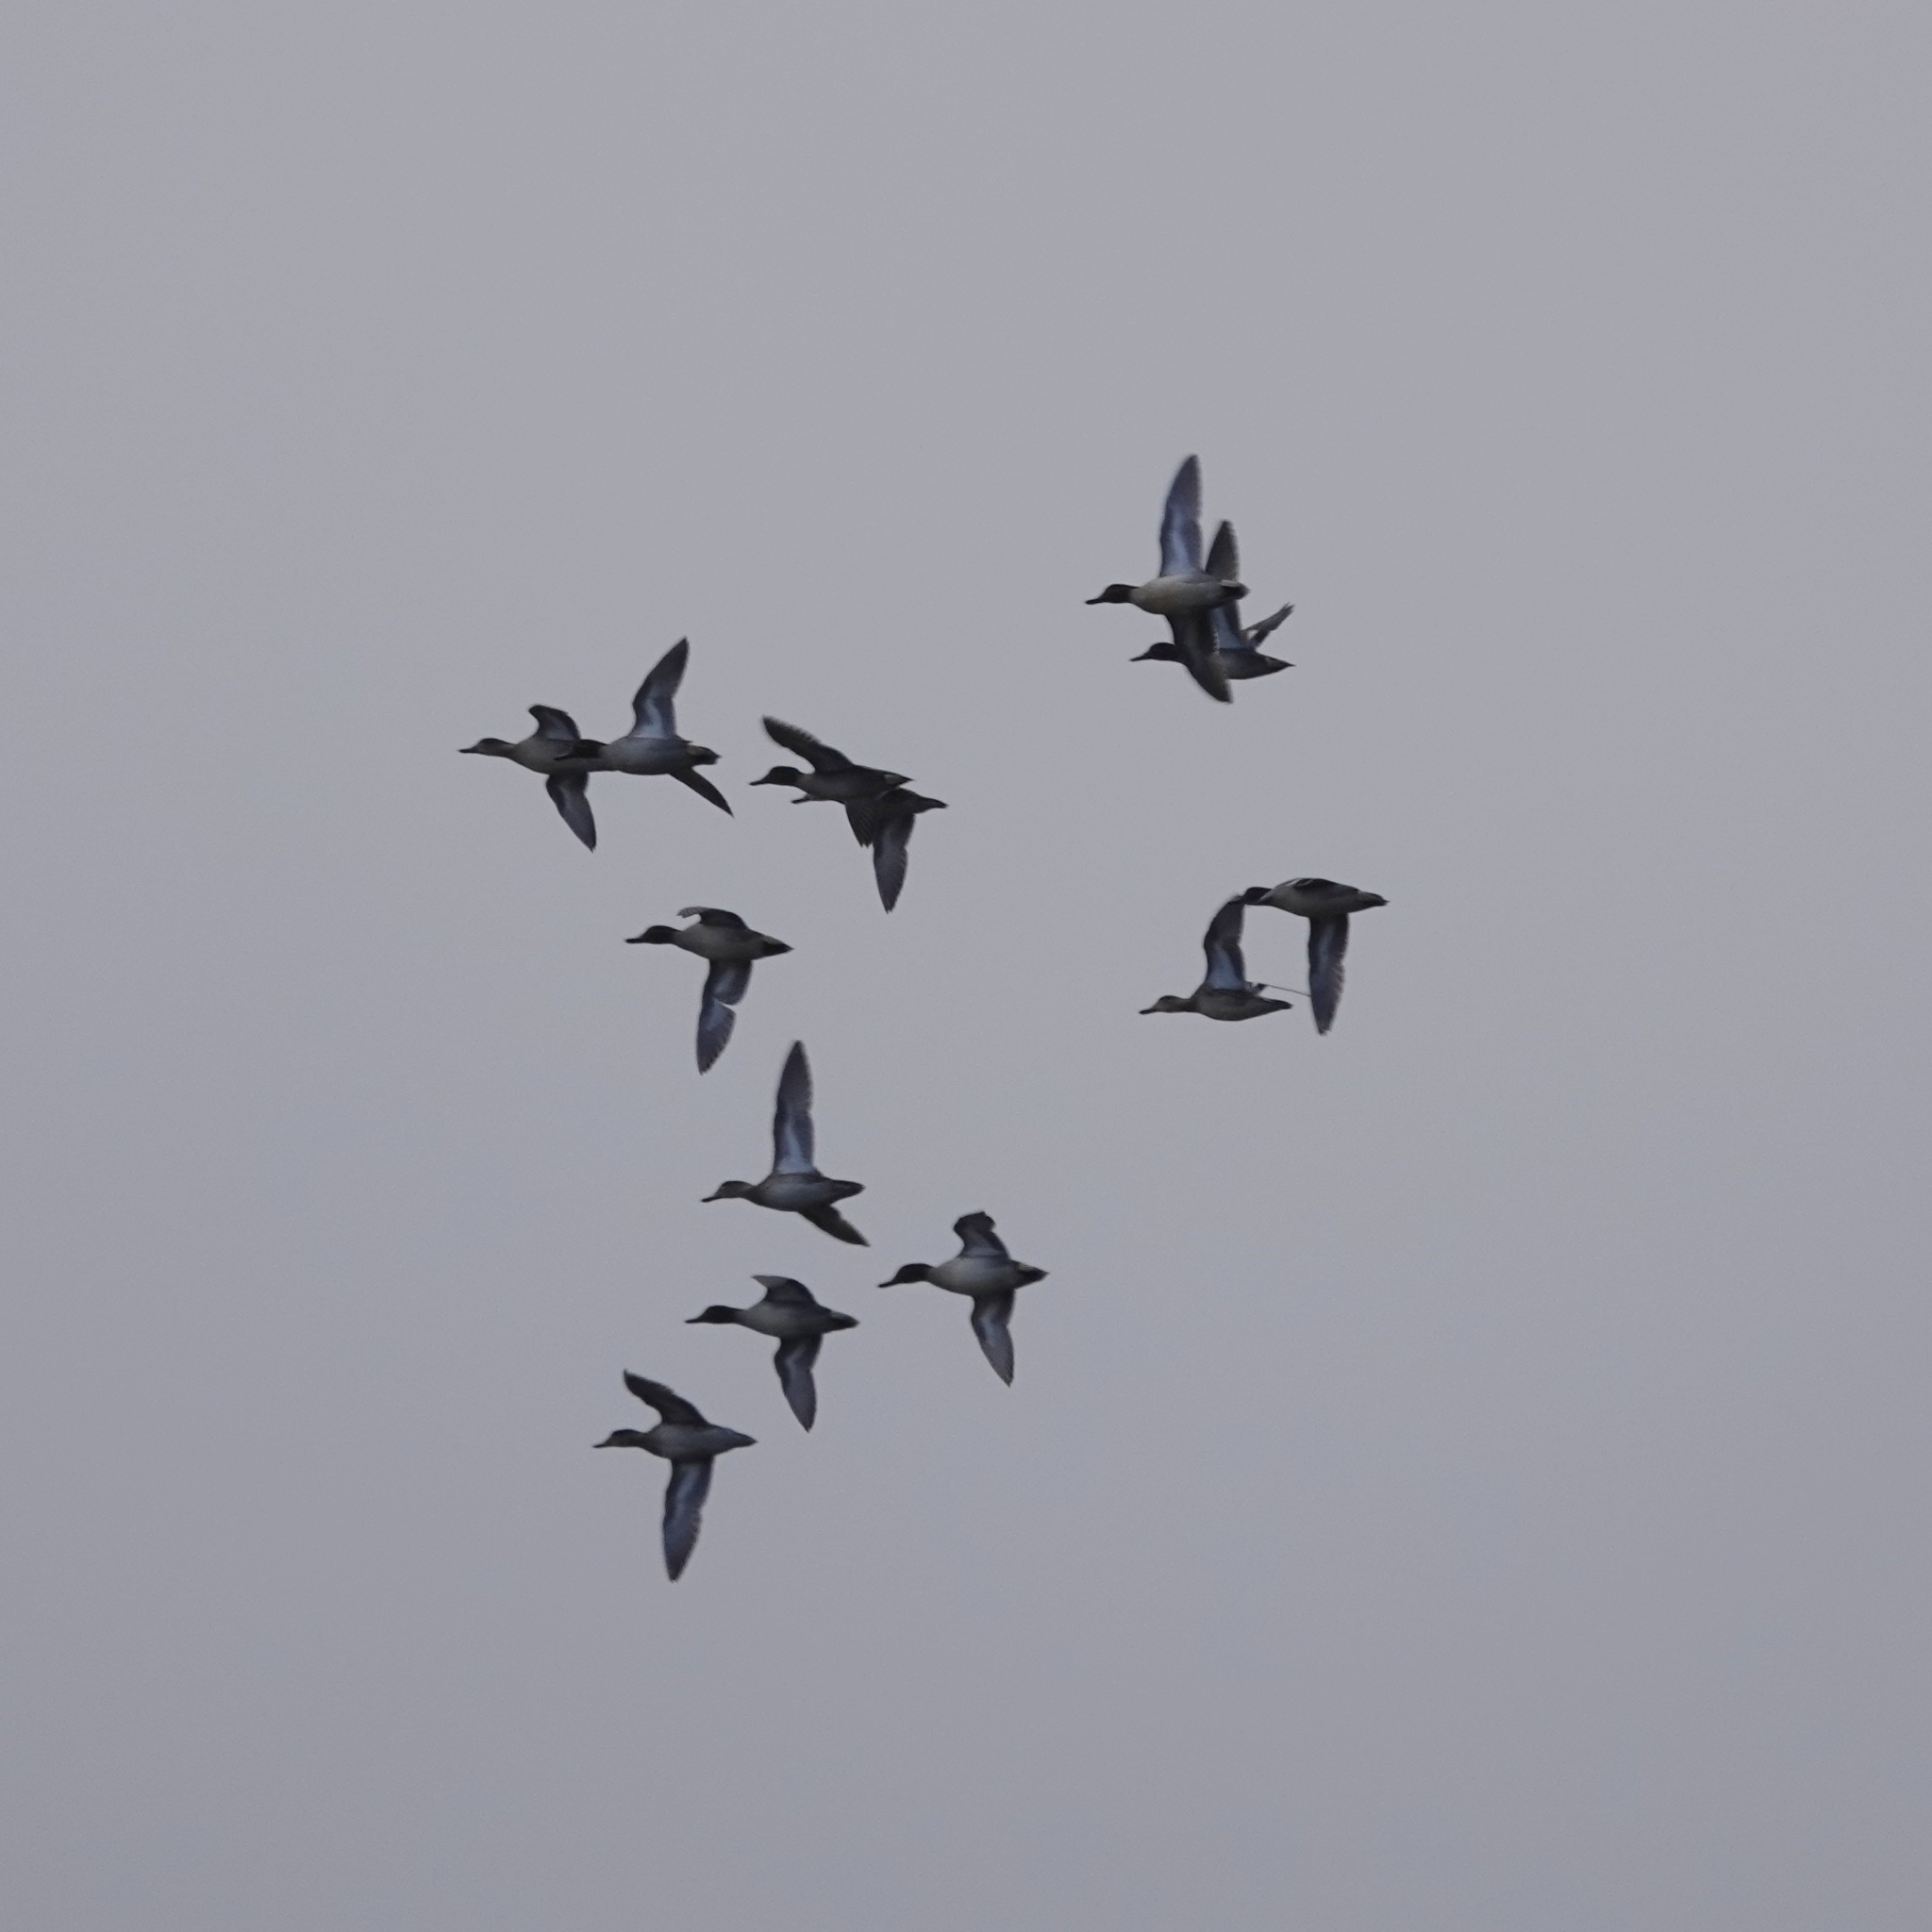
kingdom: Animalia
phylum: Chordata
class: Aves
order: Anseriformes
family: Anatidae
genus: Anas
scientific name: Anas crecca
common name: Eurasian teal
